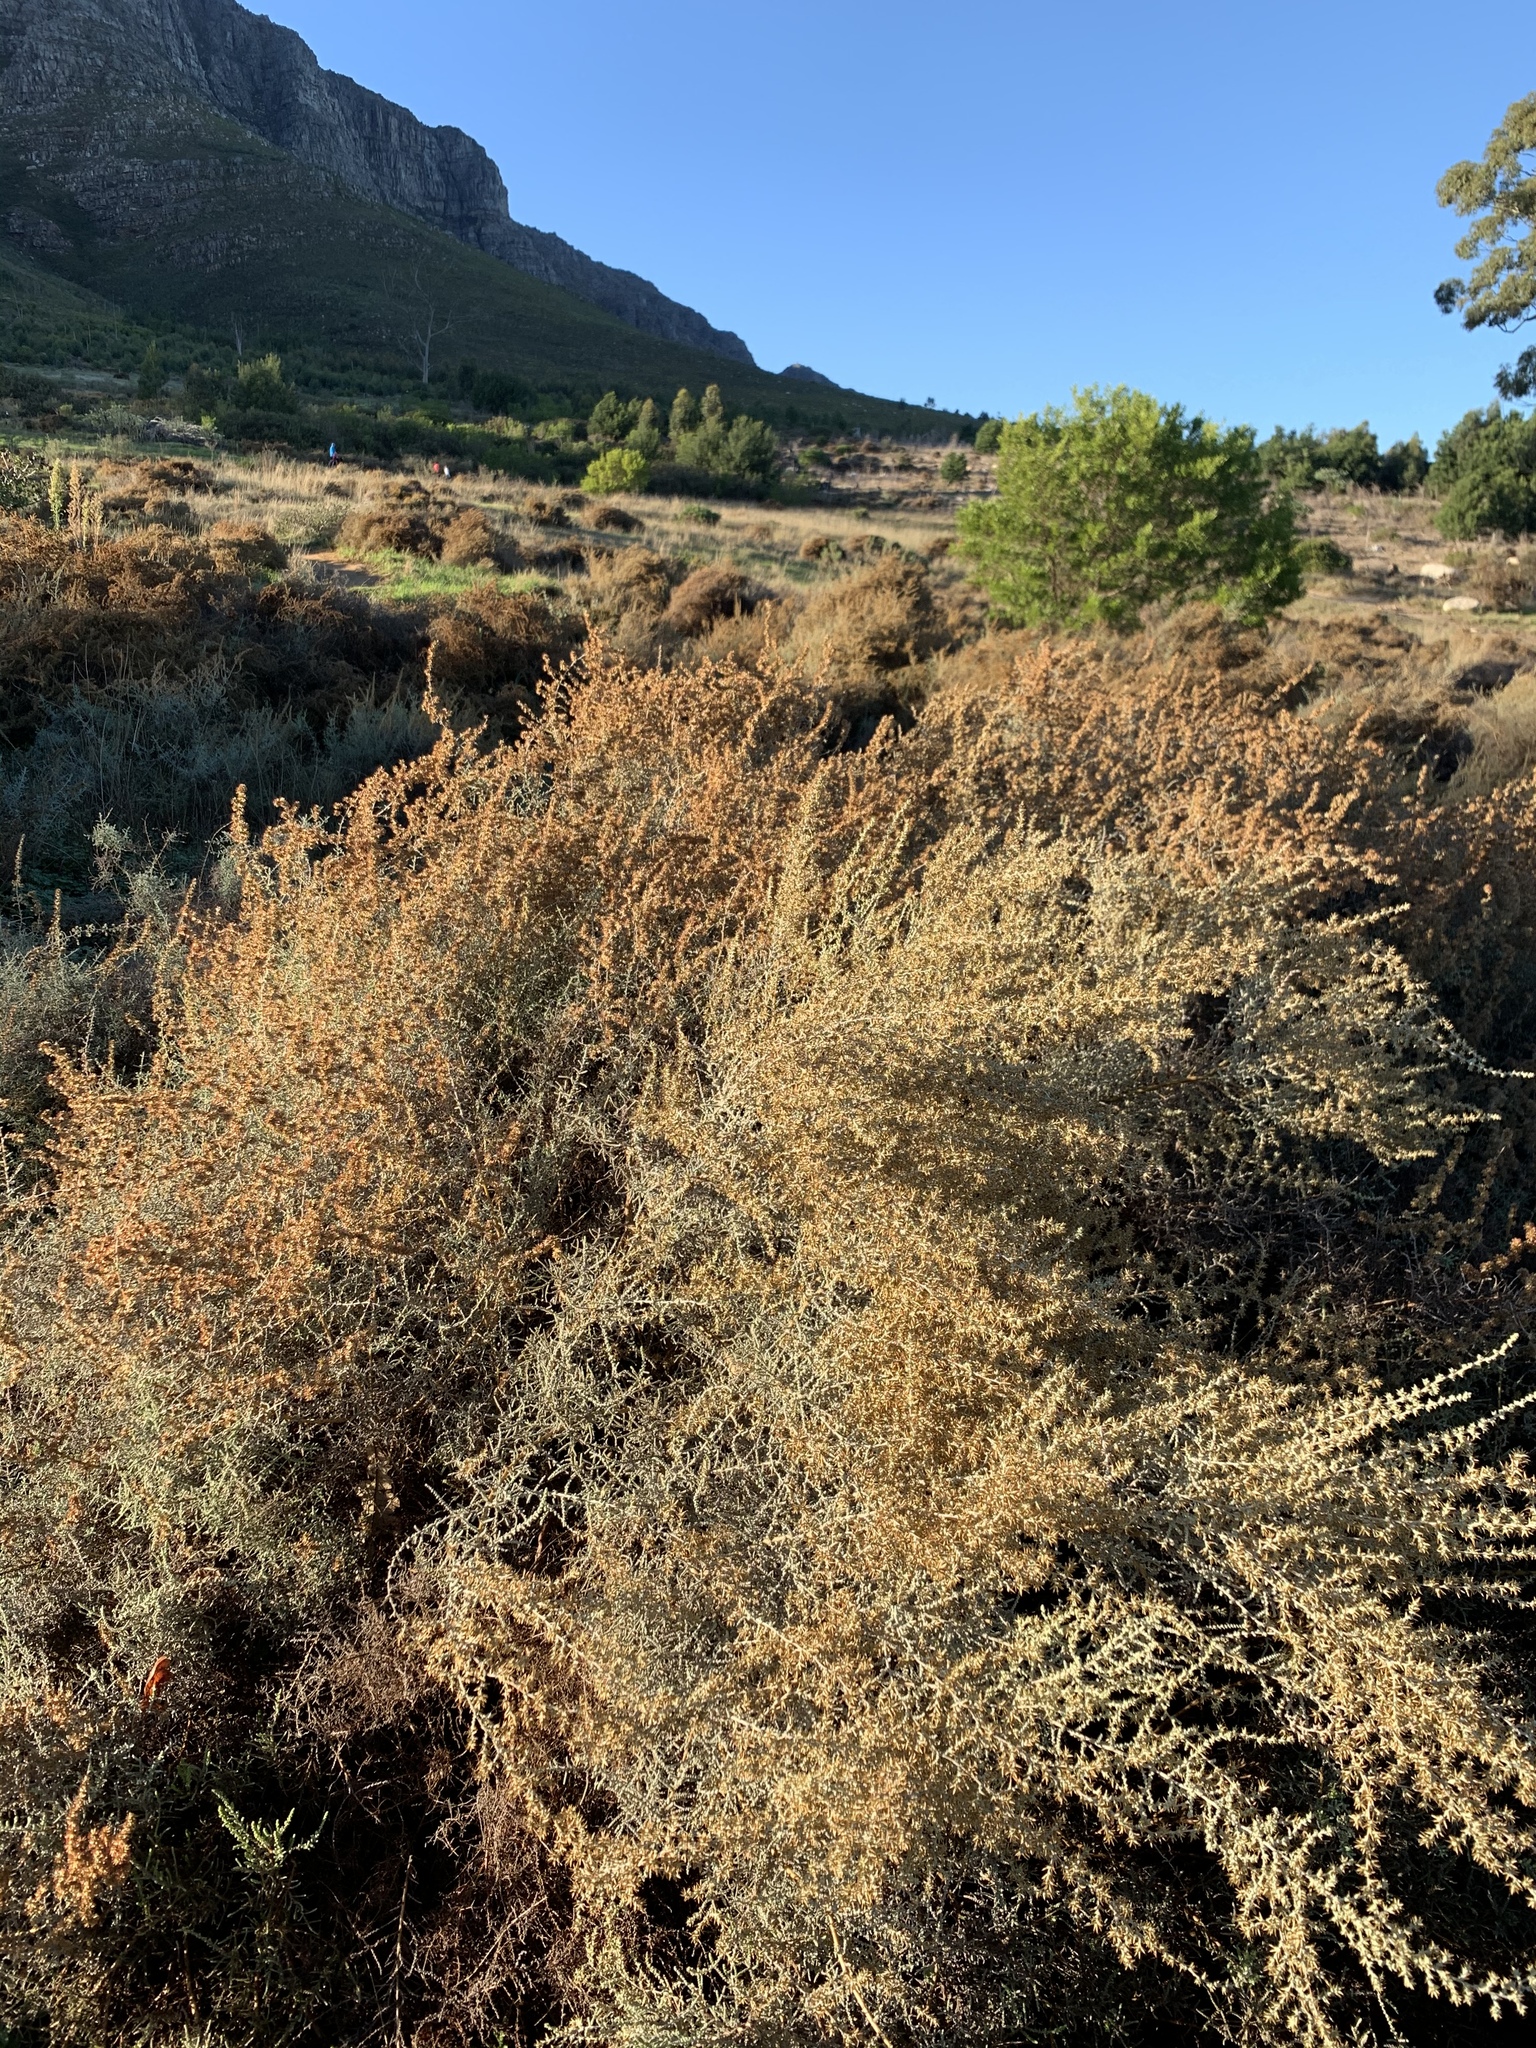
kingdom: Plantae
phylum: Tracheophyta
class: Magnoliopsida
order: Asterales
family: Asteraceae
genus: Seriphium
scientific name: Seriphium plumosum
